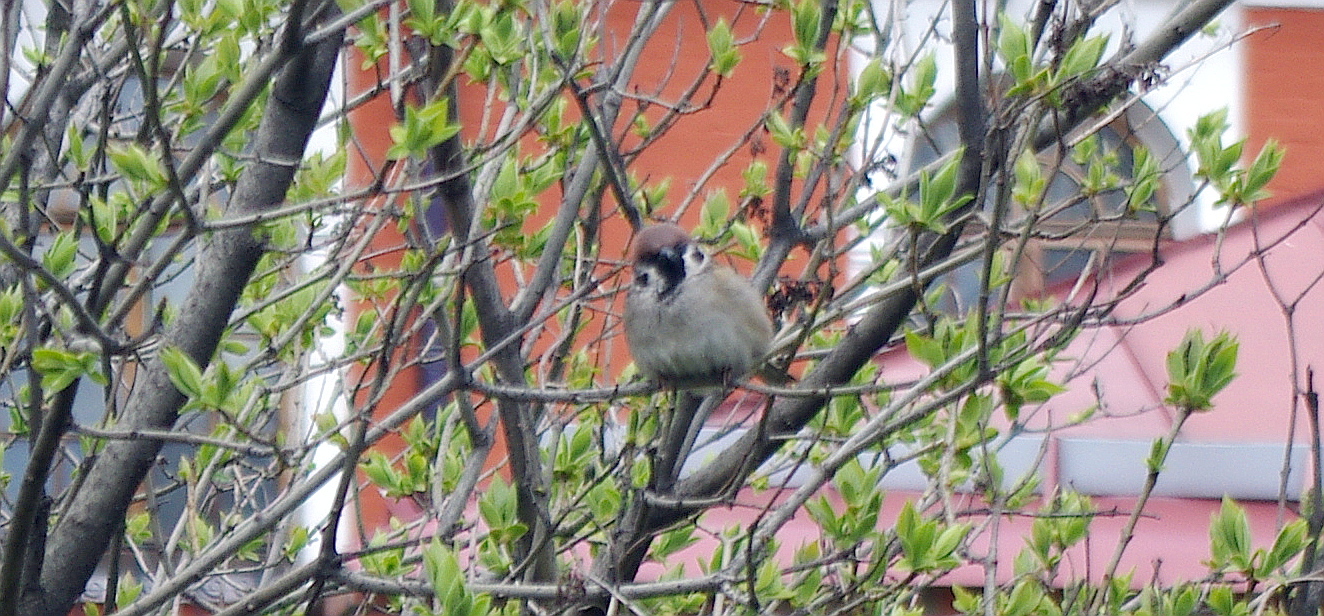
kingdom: Animalia
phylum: Chordata
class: Aves
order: Passeriformes
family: Passeridae
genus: Passer
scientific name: Passer montanus
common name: Eurasian tree sparrow
